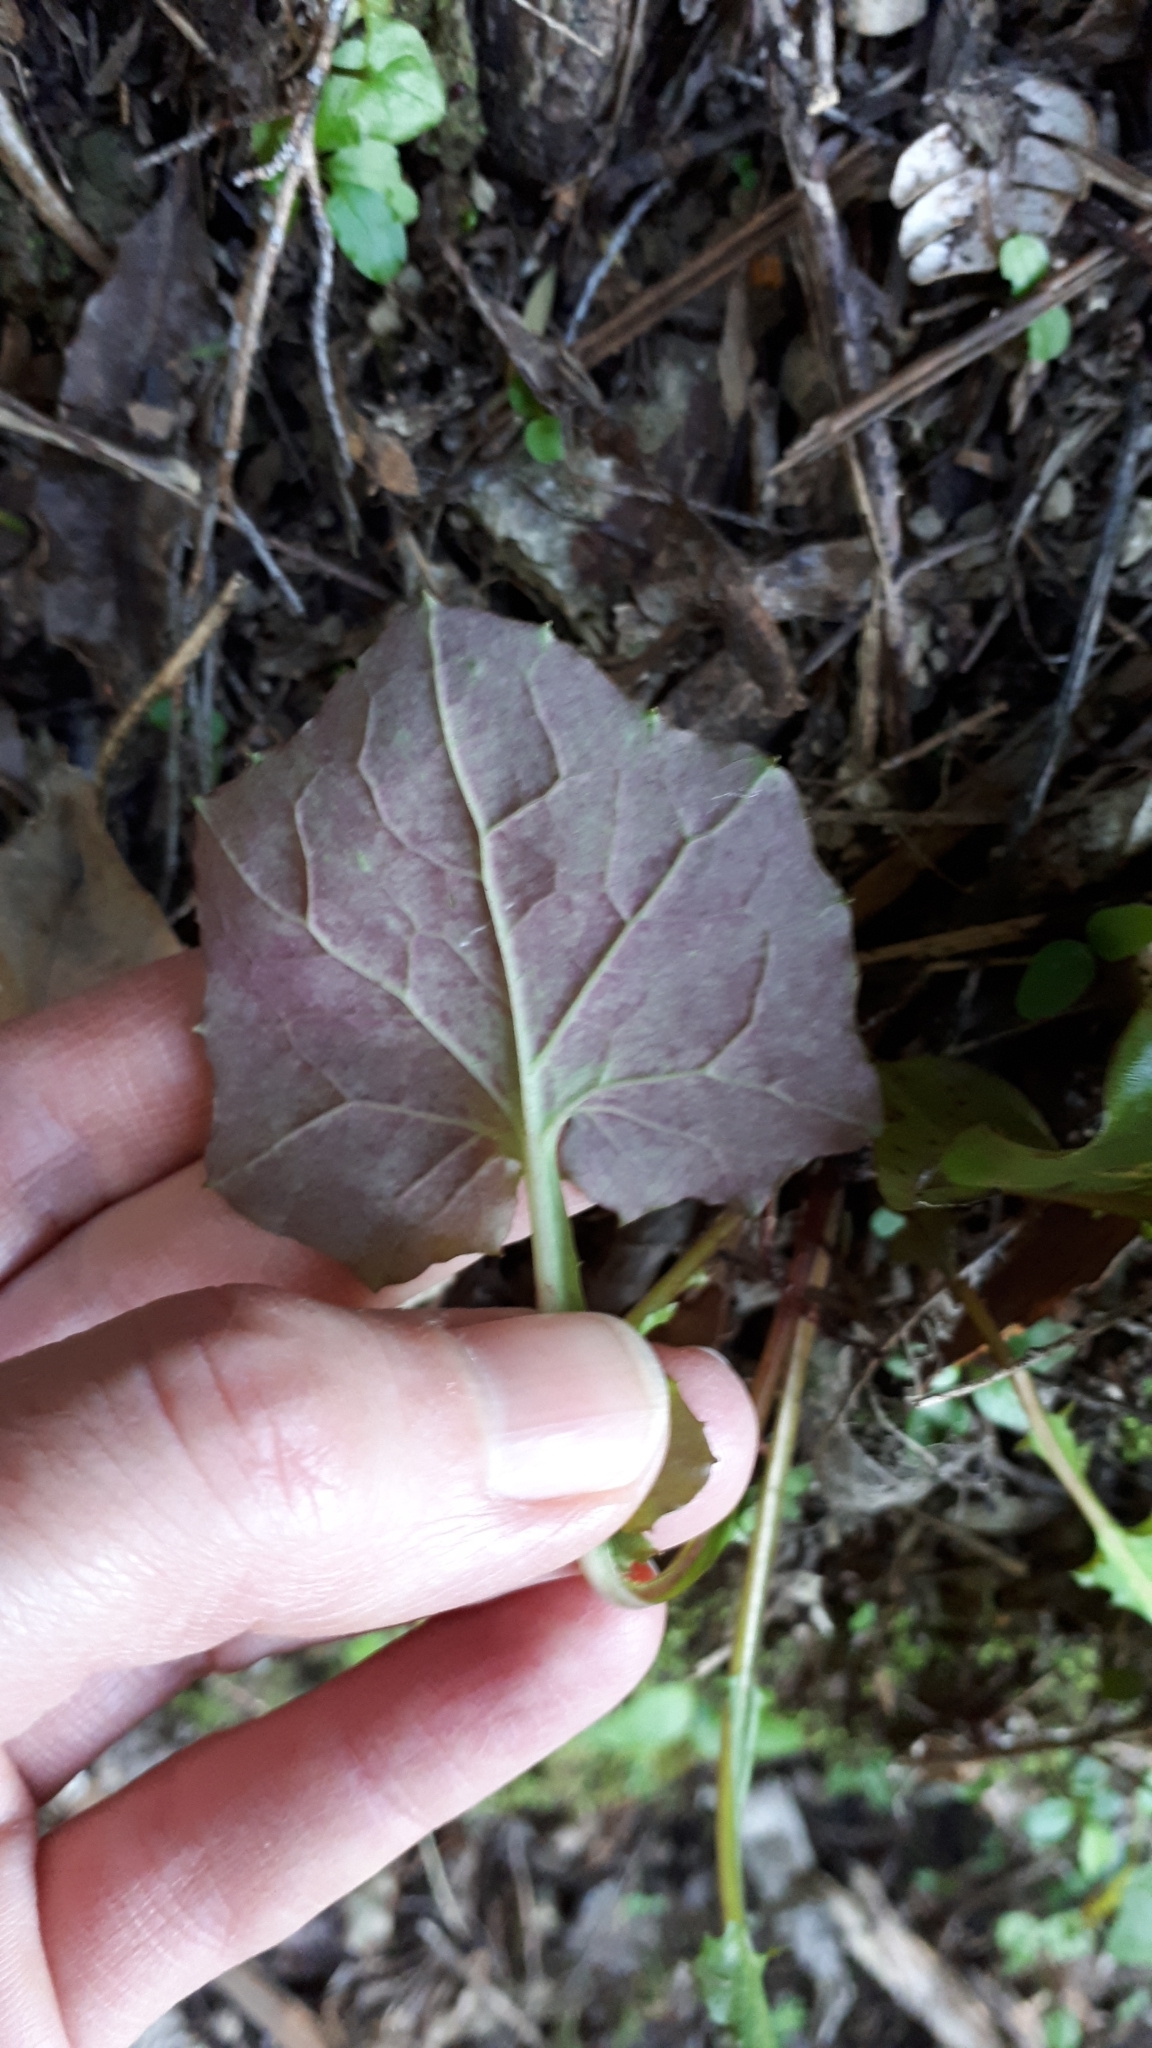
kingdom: Plantae
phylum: Tracheophyta
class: Magnoliopsida
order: Asterales
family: Asteraceae
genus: Mycelis
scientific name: Mycelis muralis
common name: Wall lettuce
